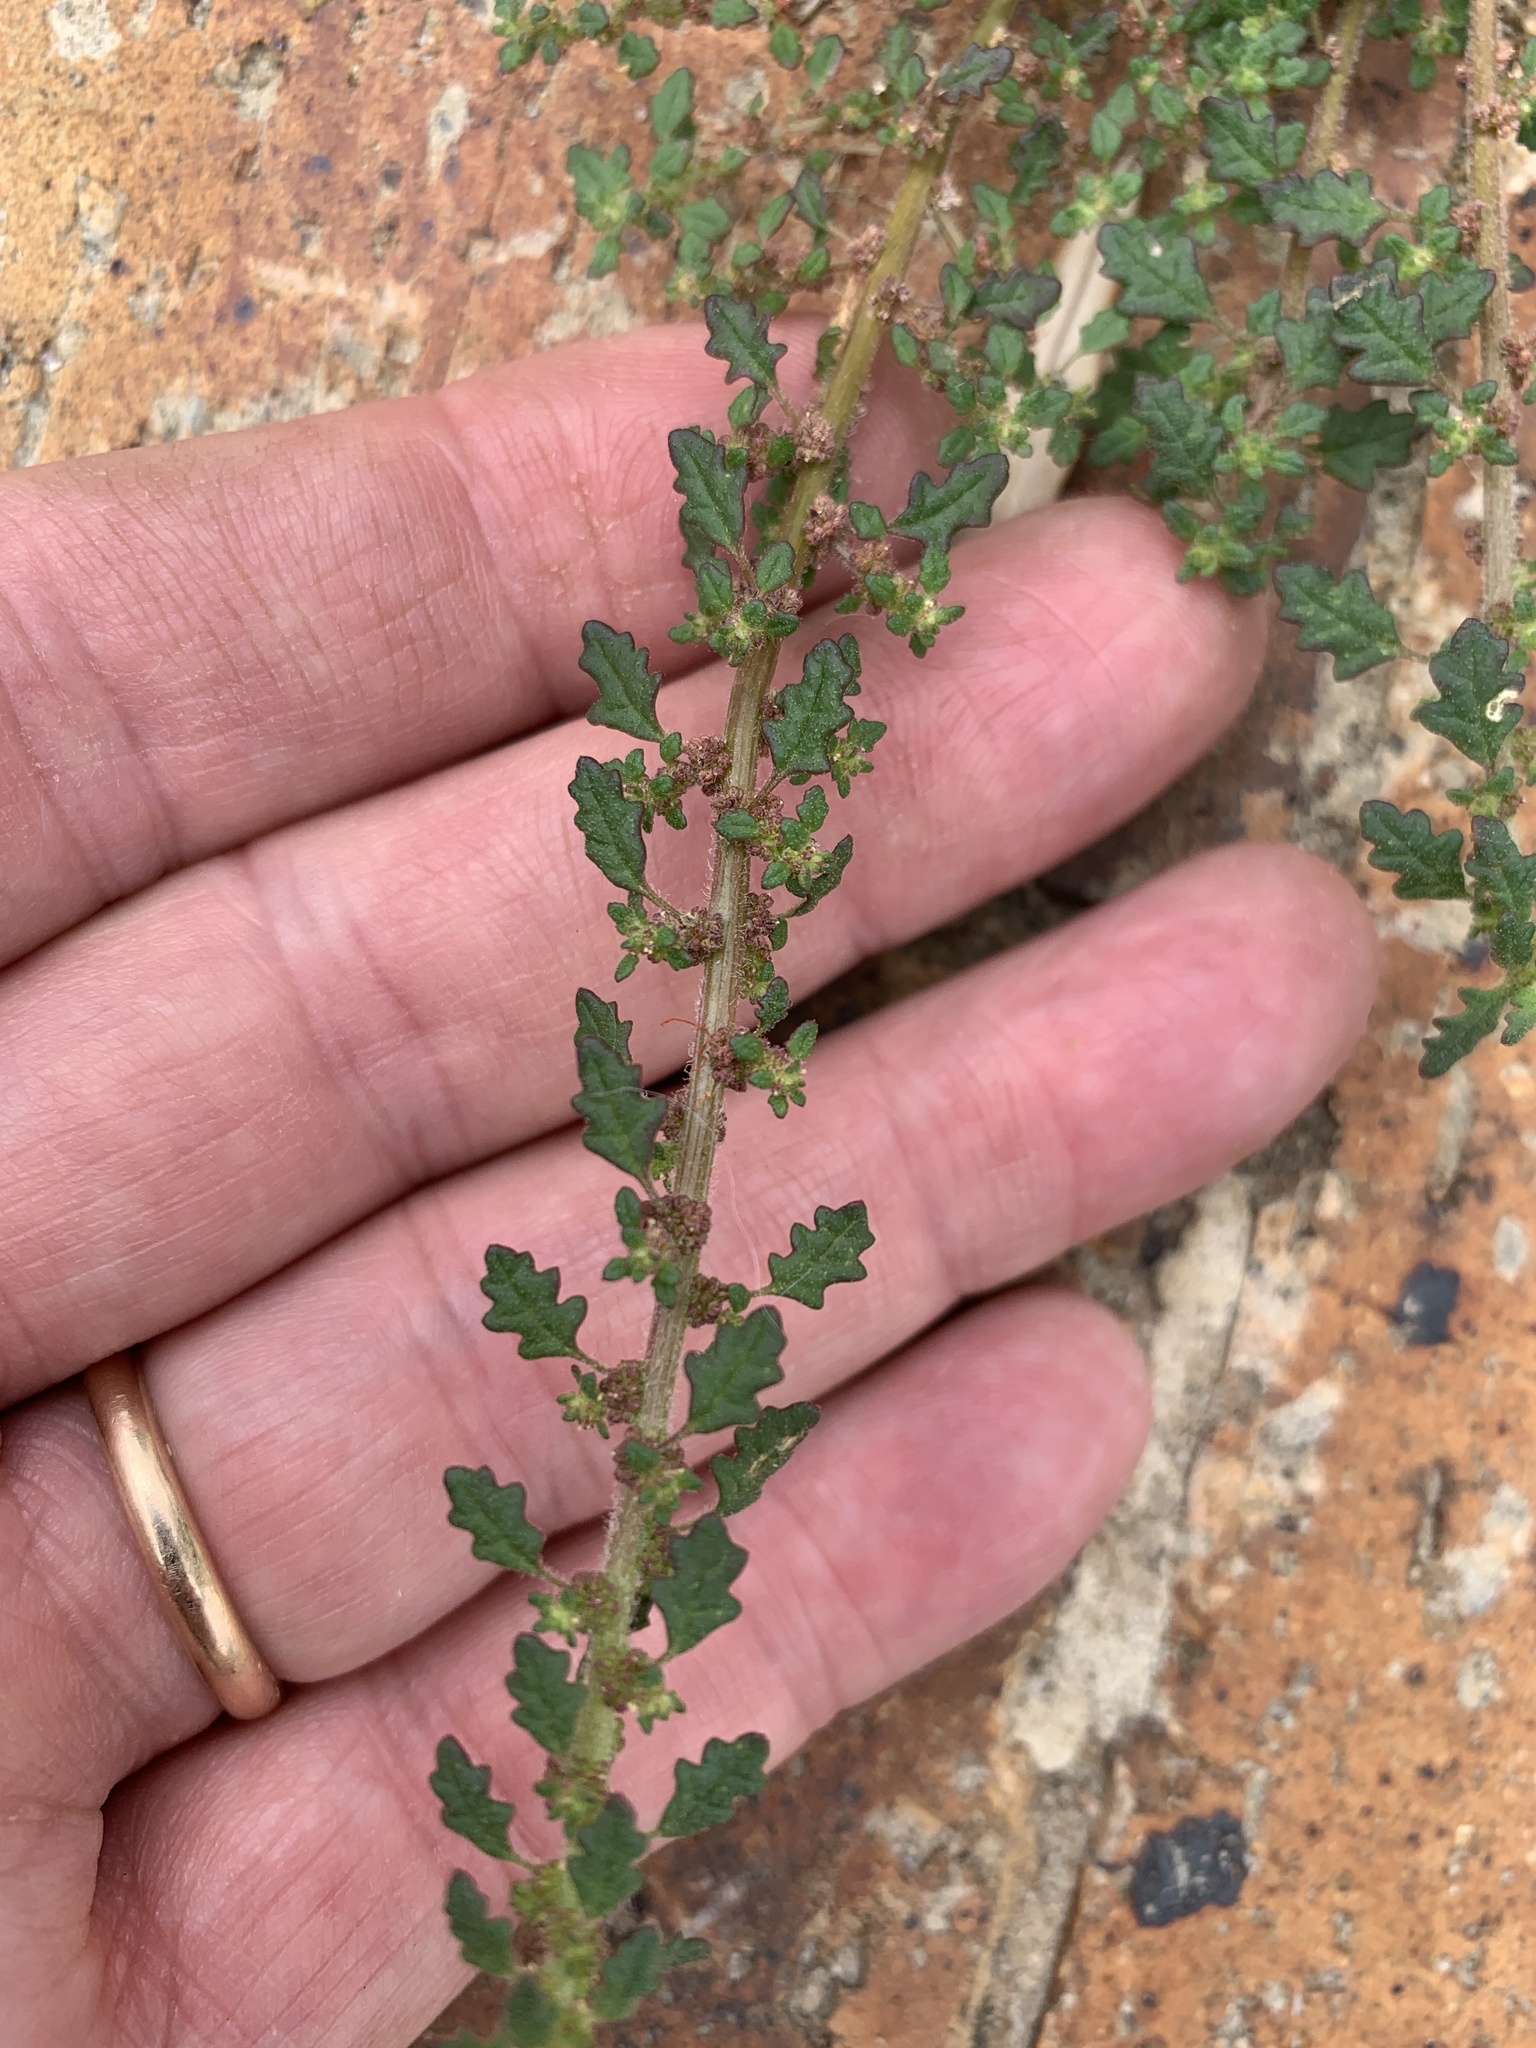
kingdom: Plantae
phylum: Tracheophyta
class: Magnoliopsida
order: Caryophyllales
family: Amaranthaceae
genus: Dysphania
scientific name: Dysphania pumilio
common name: Clammy goosefoot
